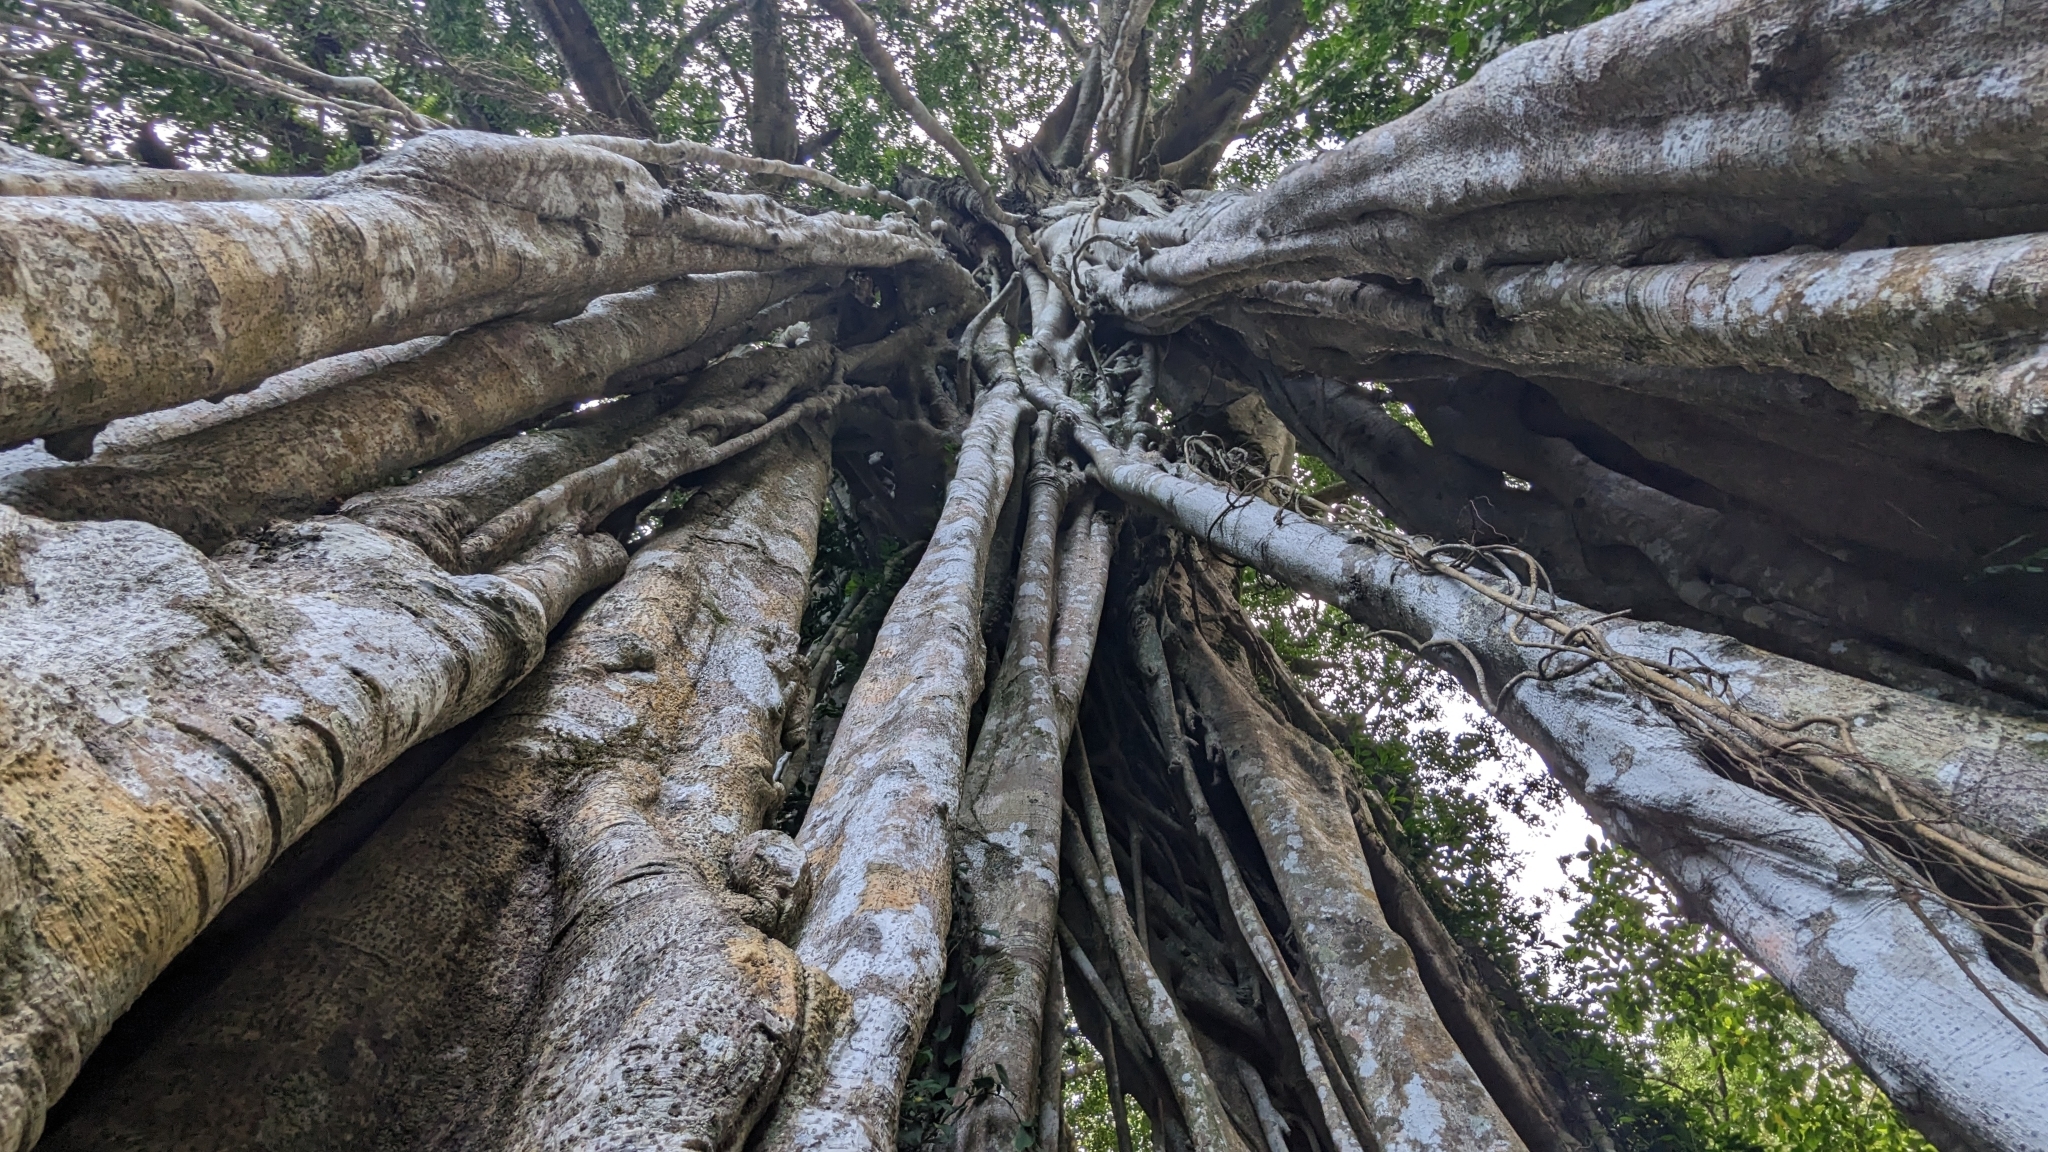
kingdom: Plantae
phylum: Tracheophyta
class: Magnoliopsida
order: Rosales
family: Moraceae
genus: Ficus
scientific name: Ficus benjamina
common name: Weeping fig
